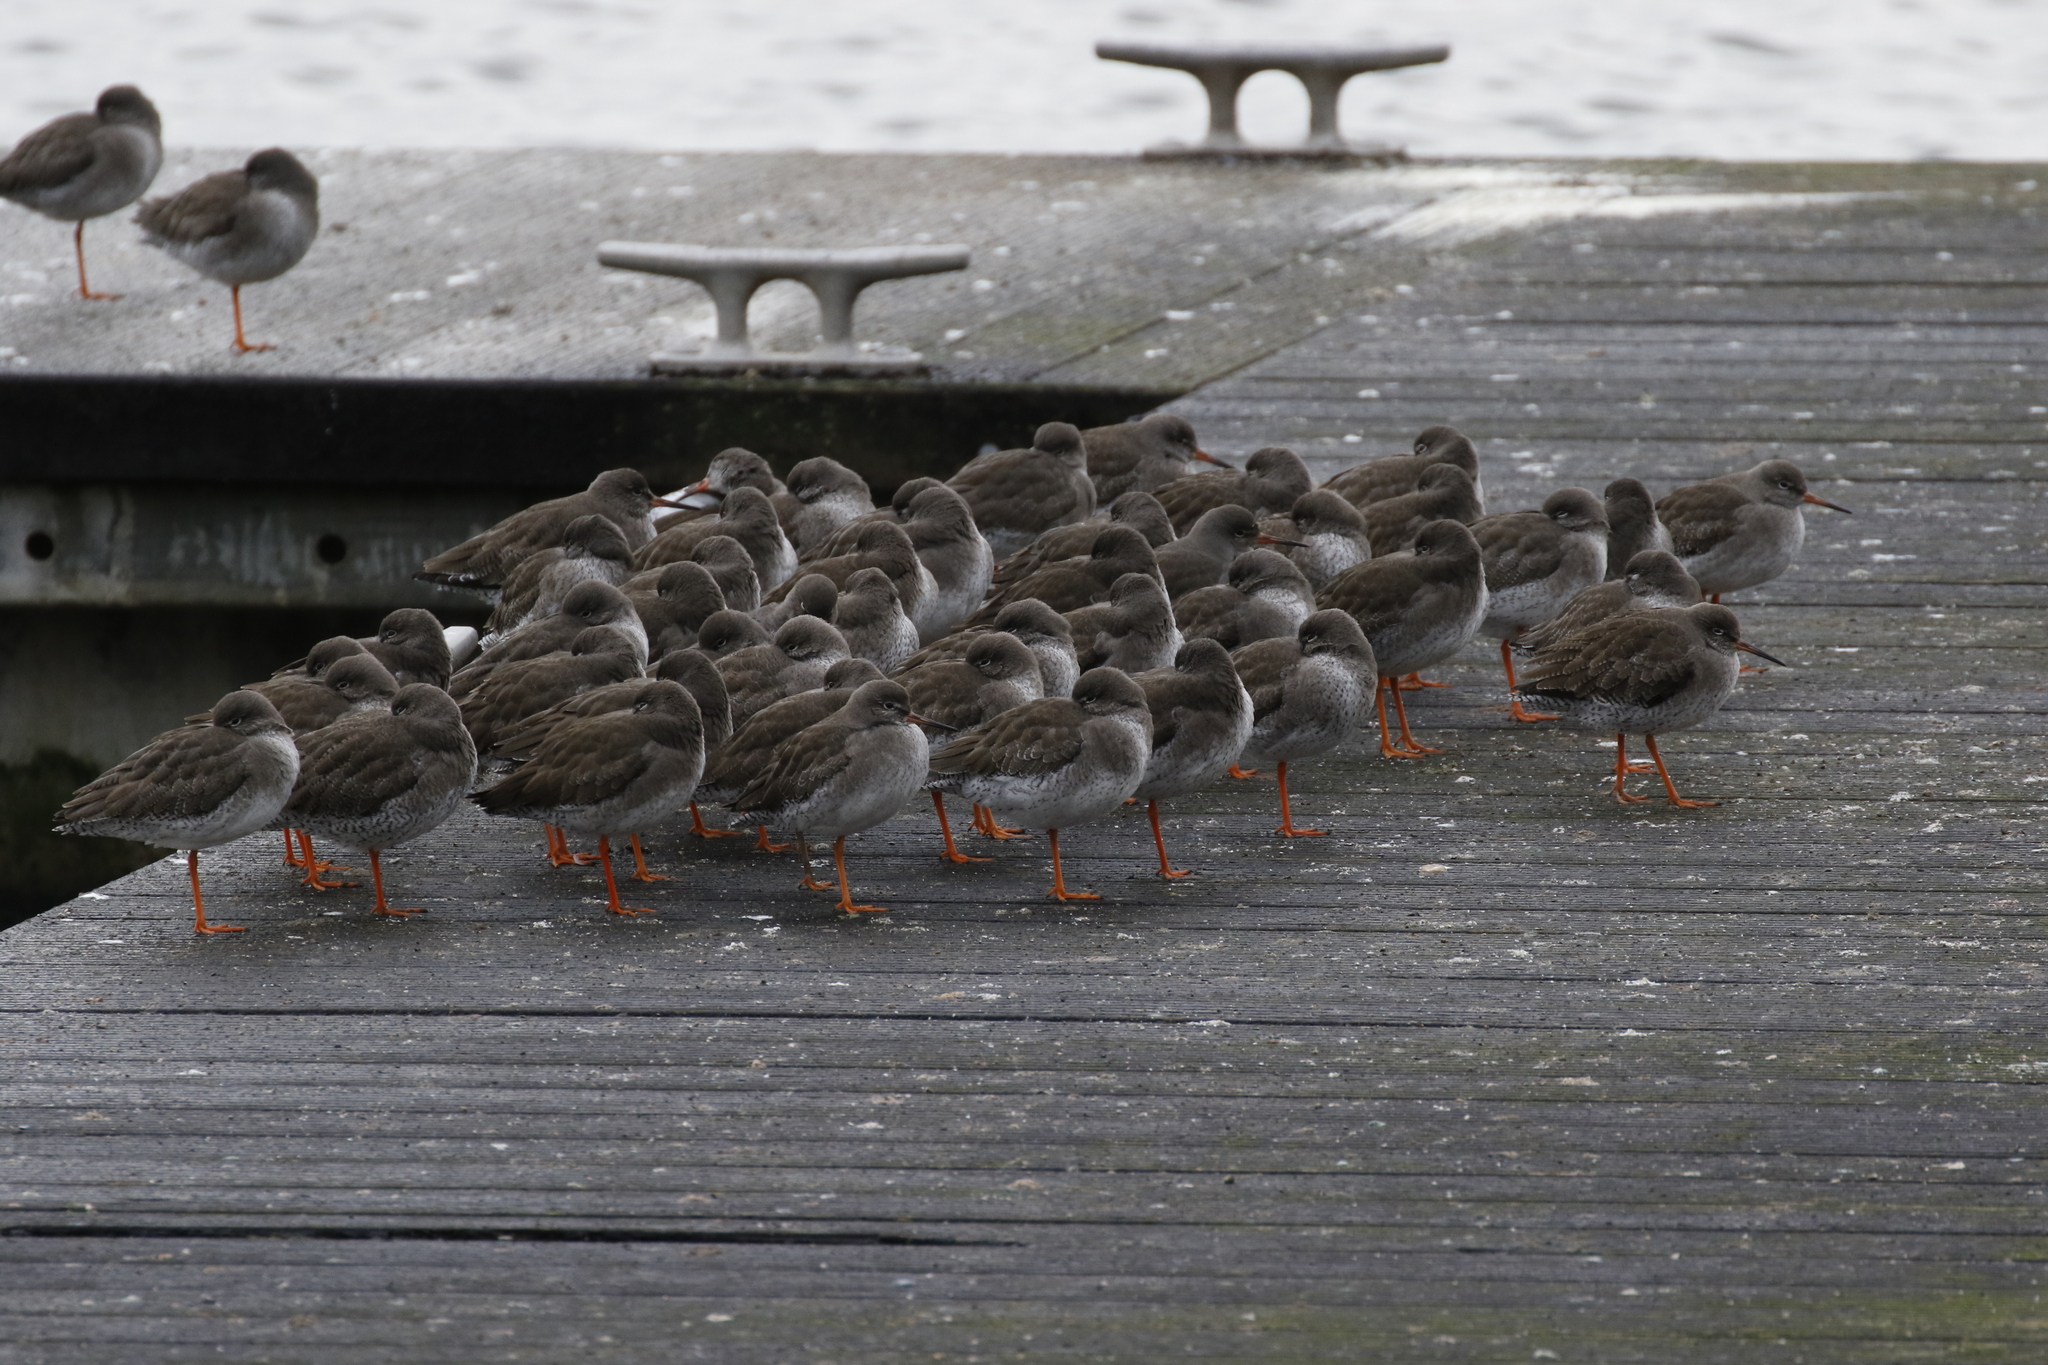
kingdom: Animalia
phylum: Chordata
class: Aves
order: Charadriiformes
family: Scolopacidae
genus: Tringa
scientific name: Tringa totanus
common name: Common redshank
